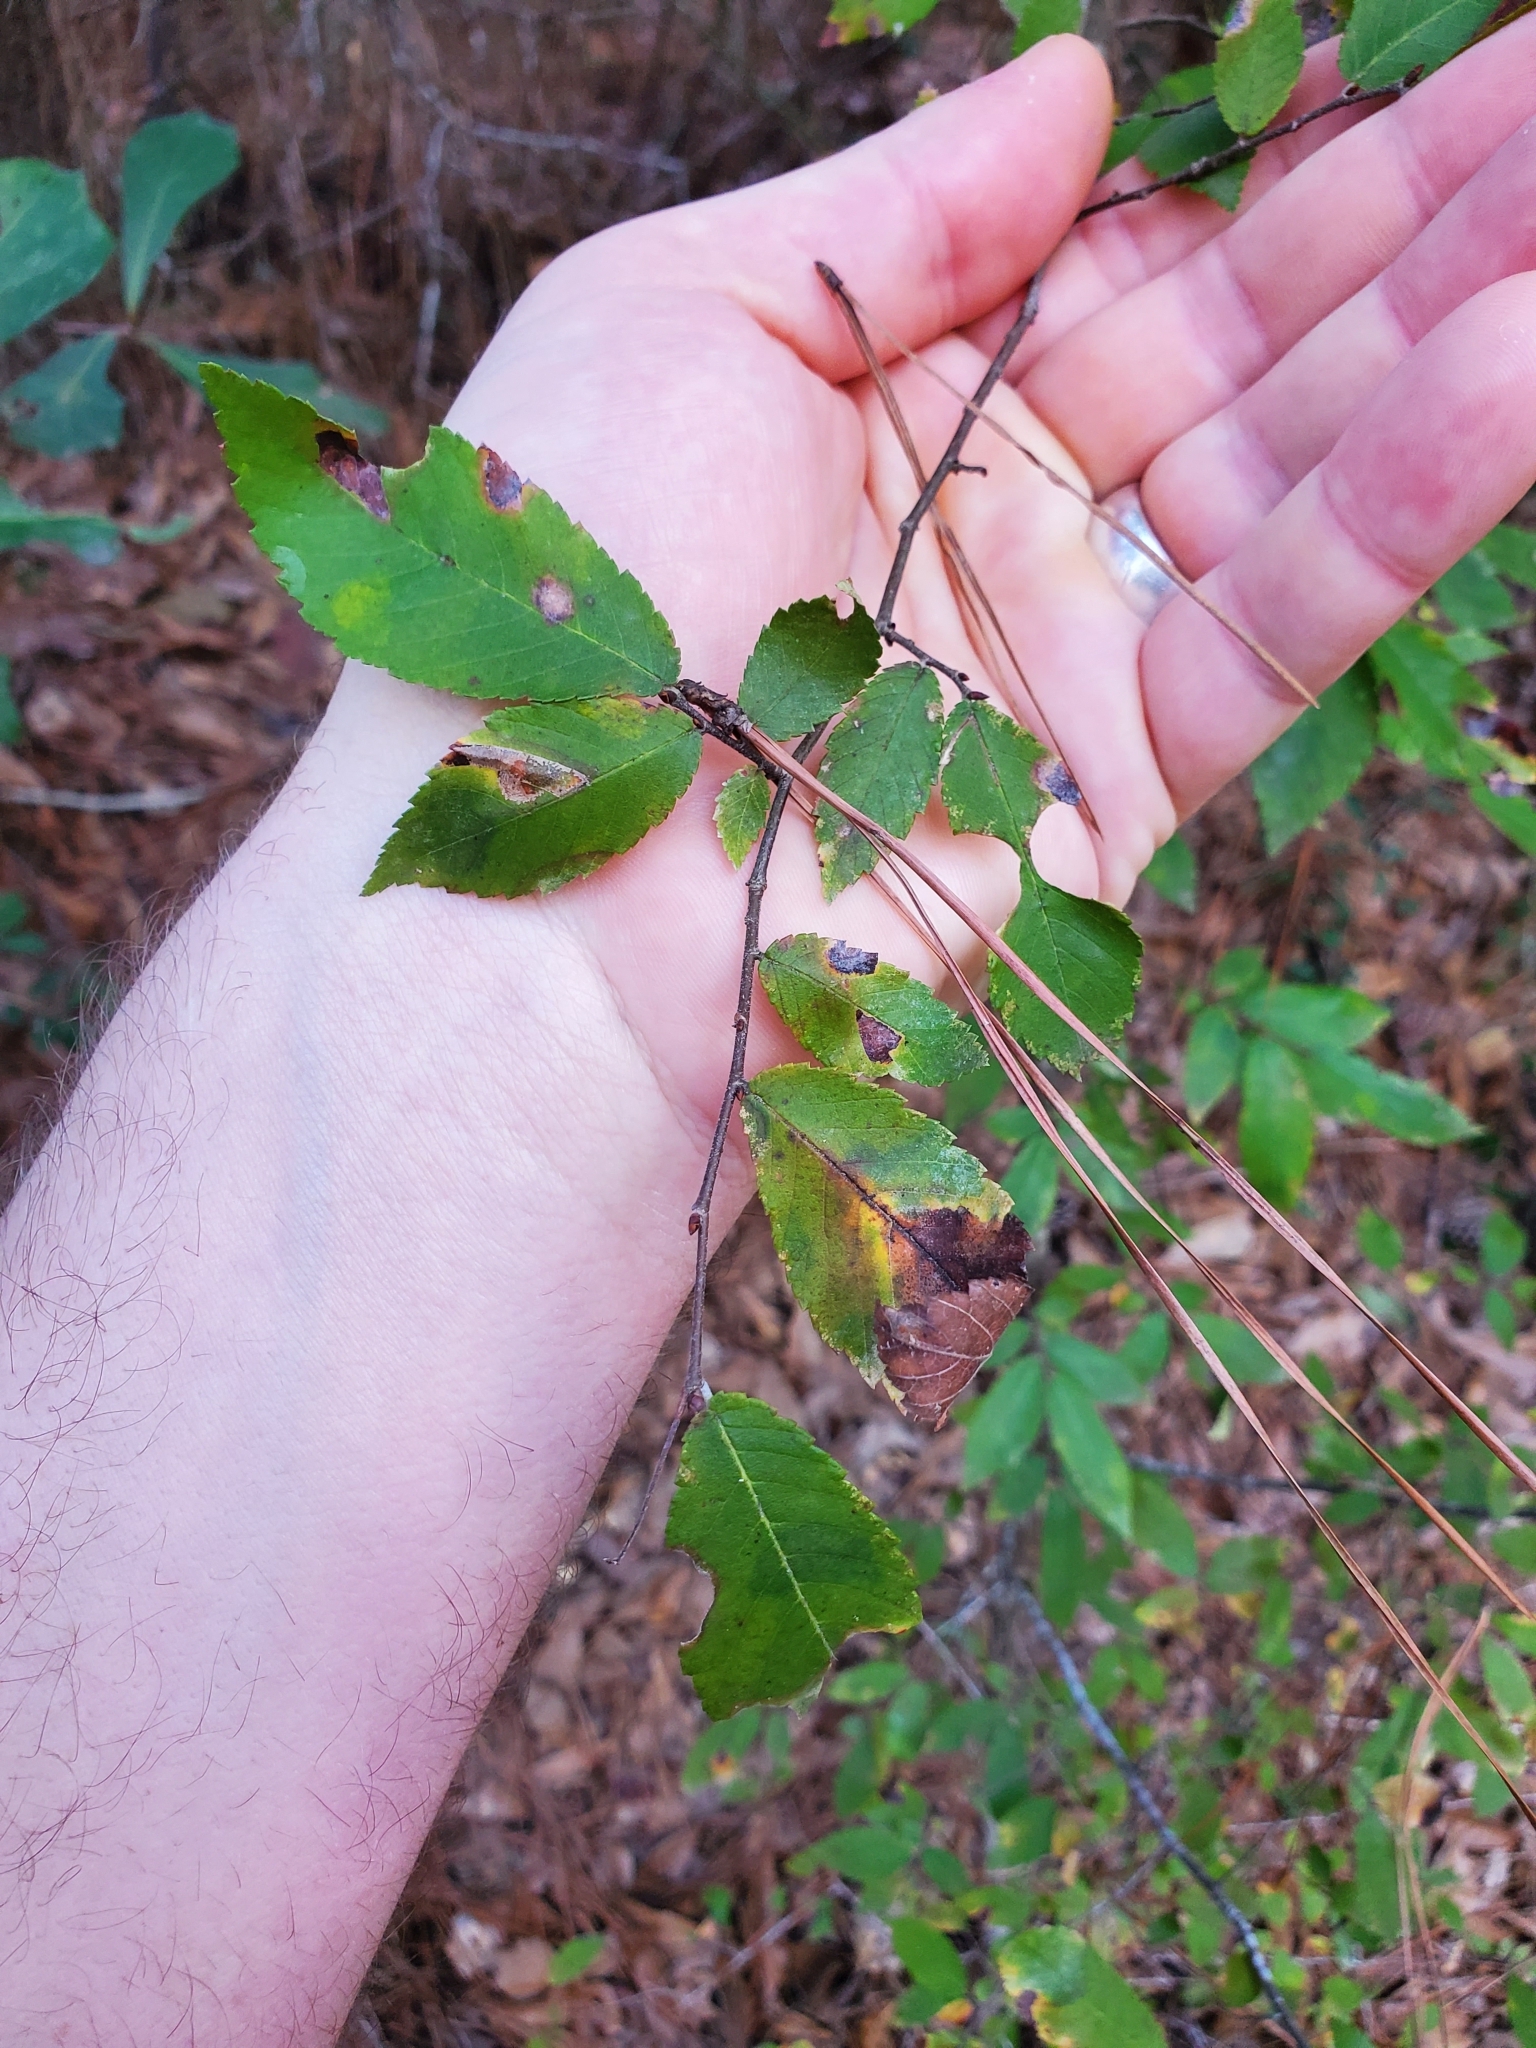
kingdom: Plantae
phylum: Tracheophyta
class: Magnoliopsida
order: Rosales
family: Ulmaceae
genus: Ulmus
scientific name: Ulmus alata
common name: Winged elm
